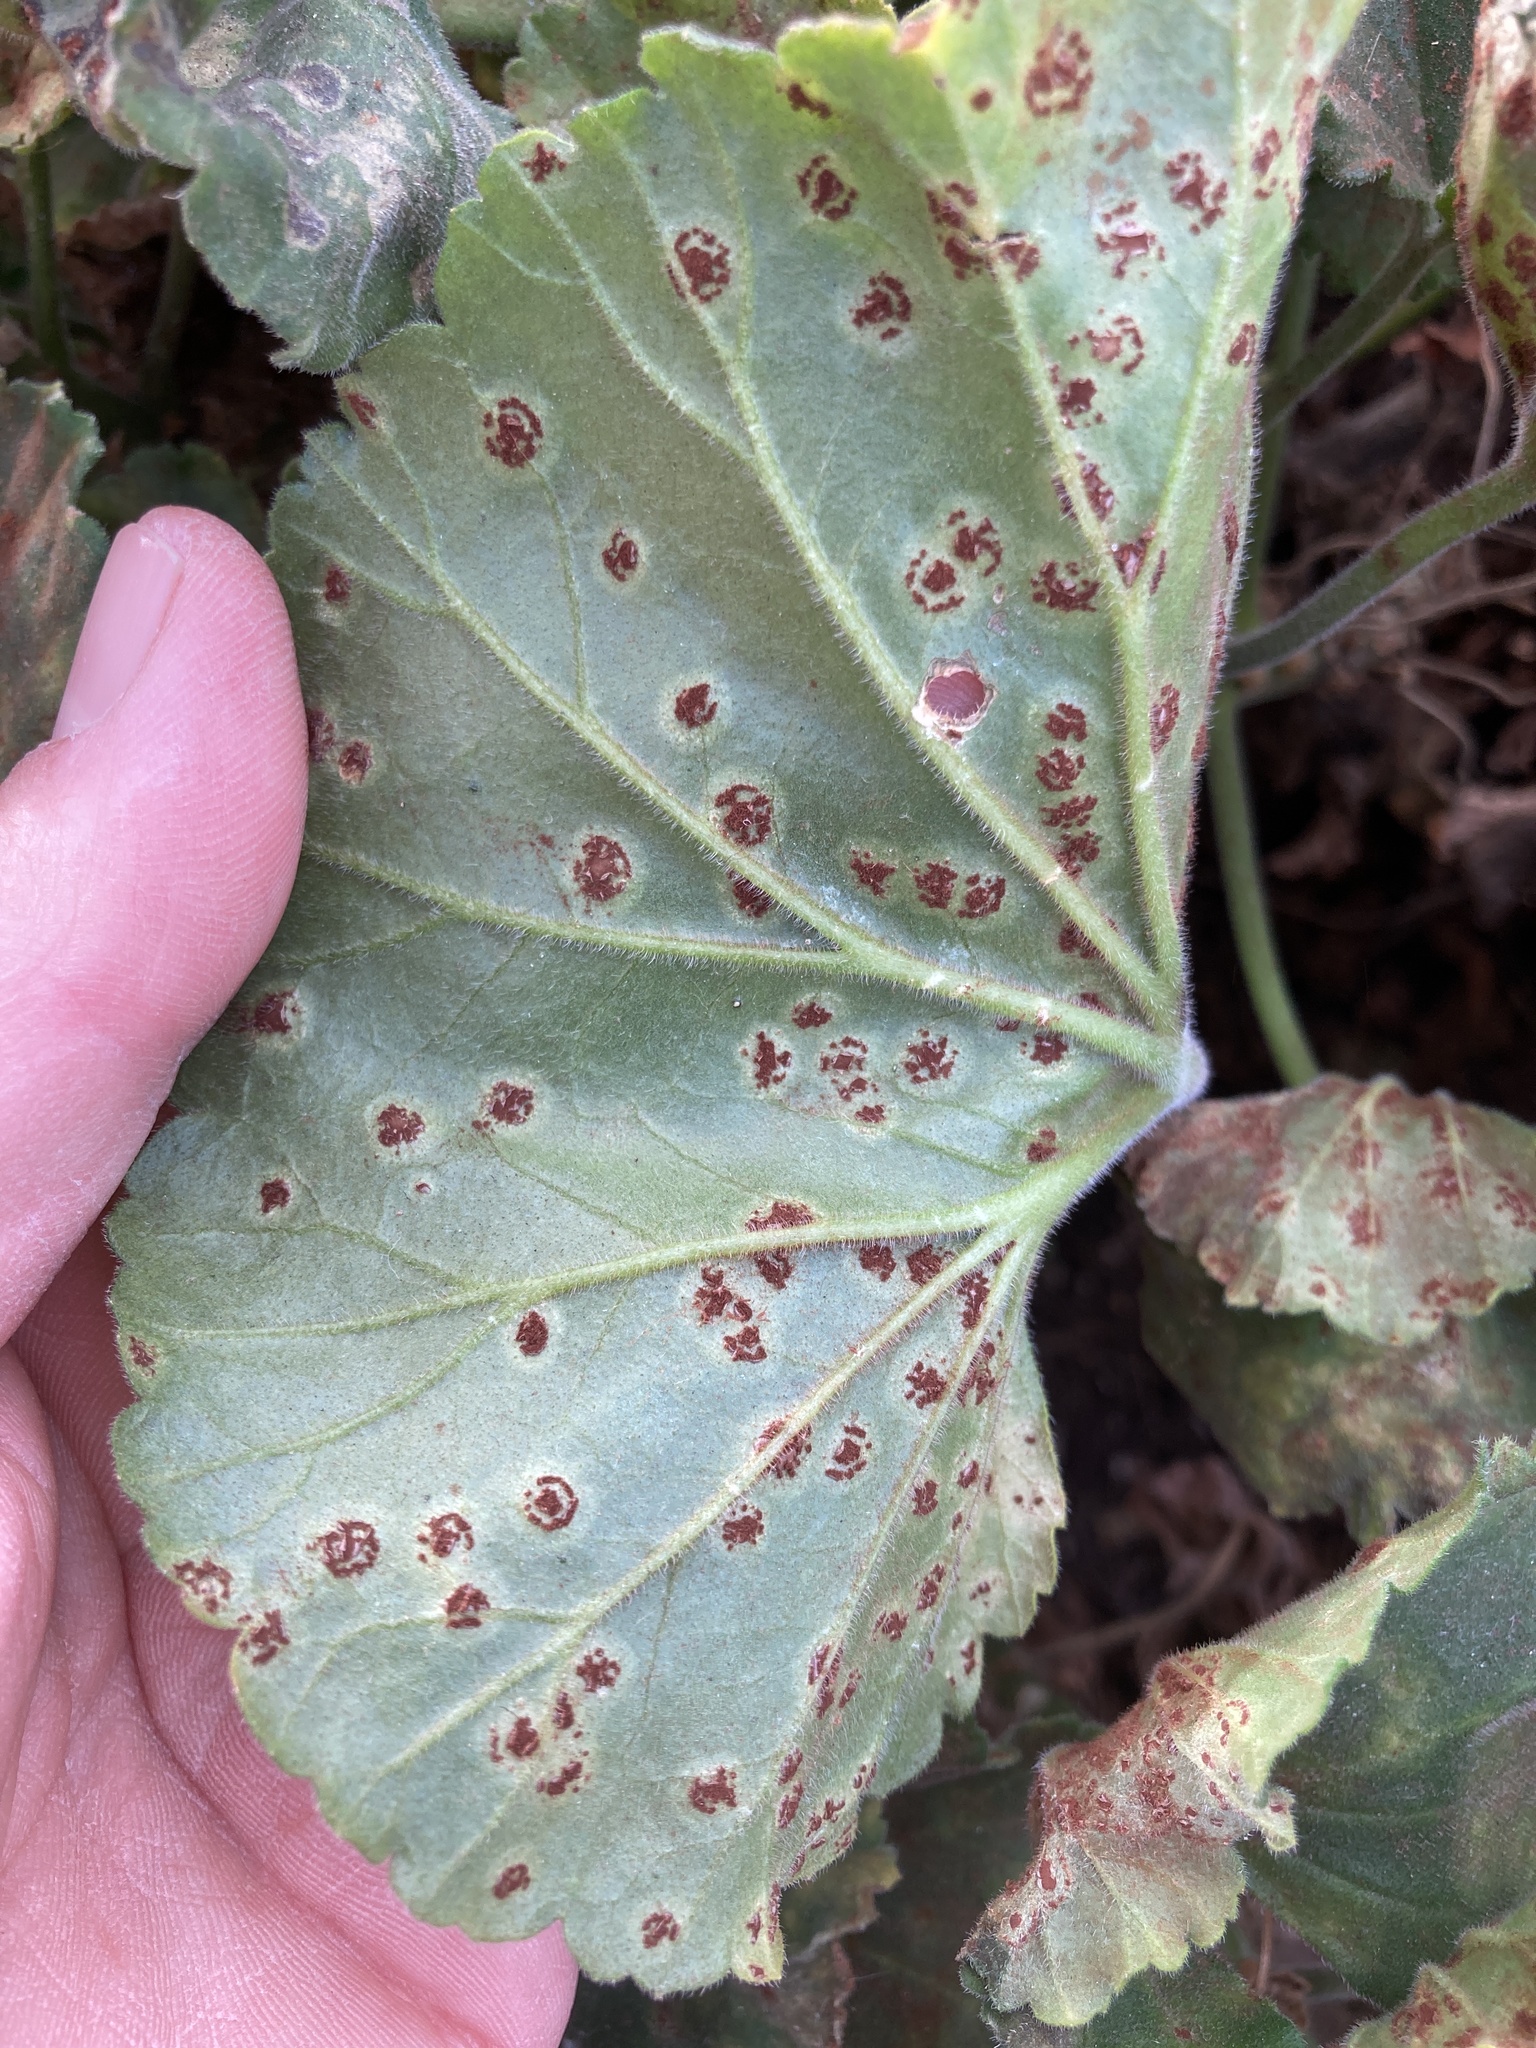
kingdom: Fungi
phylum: Basidiomycota
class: Pucciniomycetes
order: Pucciniales
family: Pucciniaceae
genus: Puccinia
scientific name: Puccinia pelargonii-zonalis
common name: Rust of pelargonium
